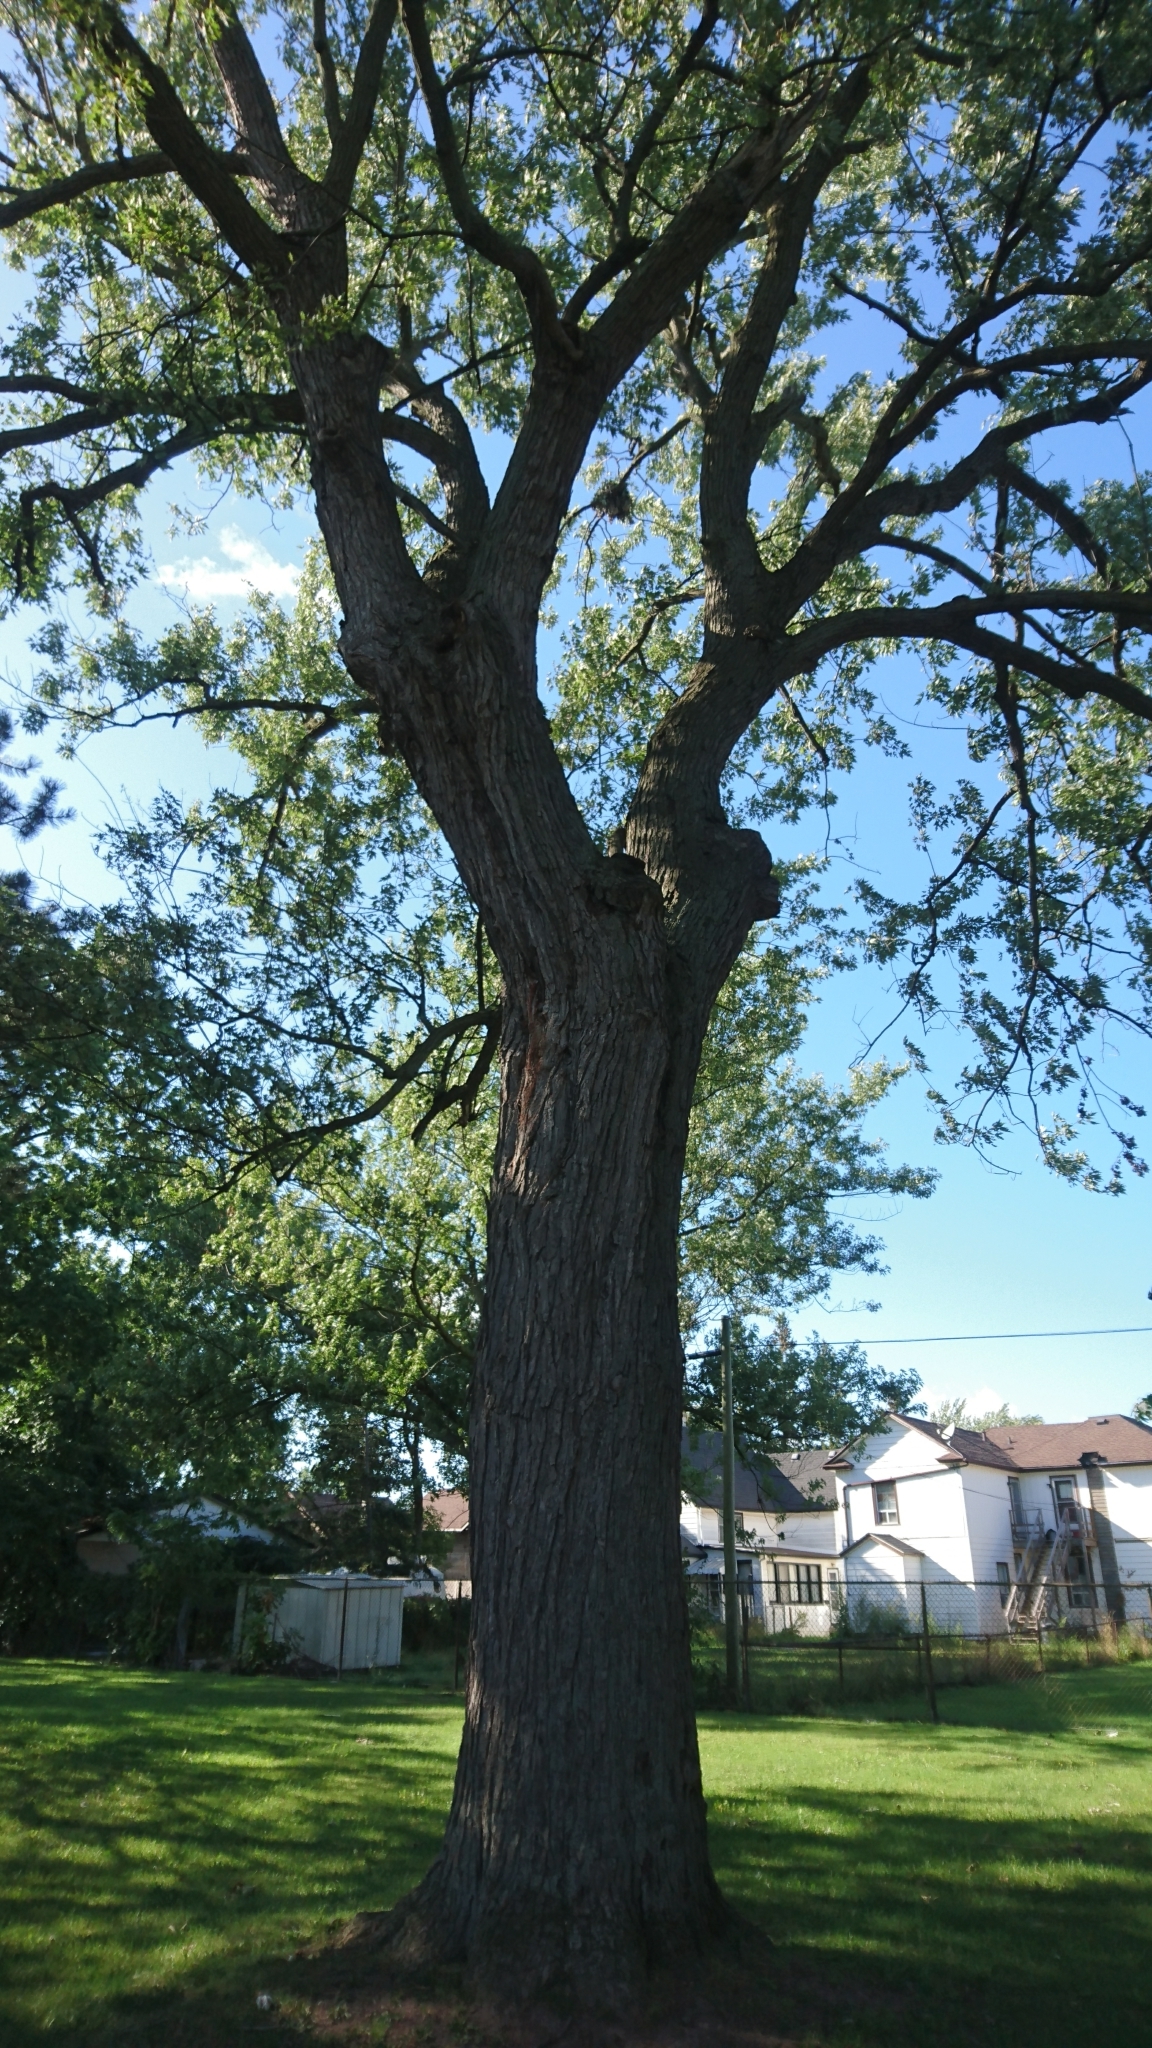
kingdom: Plantae
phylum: Tracheophyta
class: Magnoliopsida
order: Sapindales
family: Sapindaceae
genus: Acer
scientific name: Acer saccharinum
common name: Silver maple
